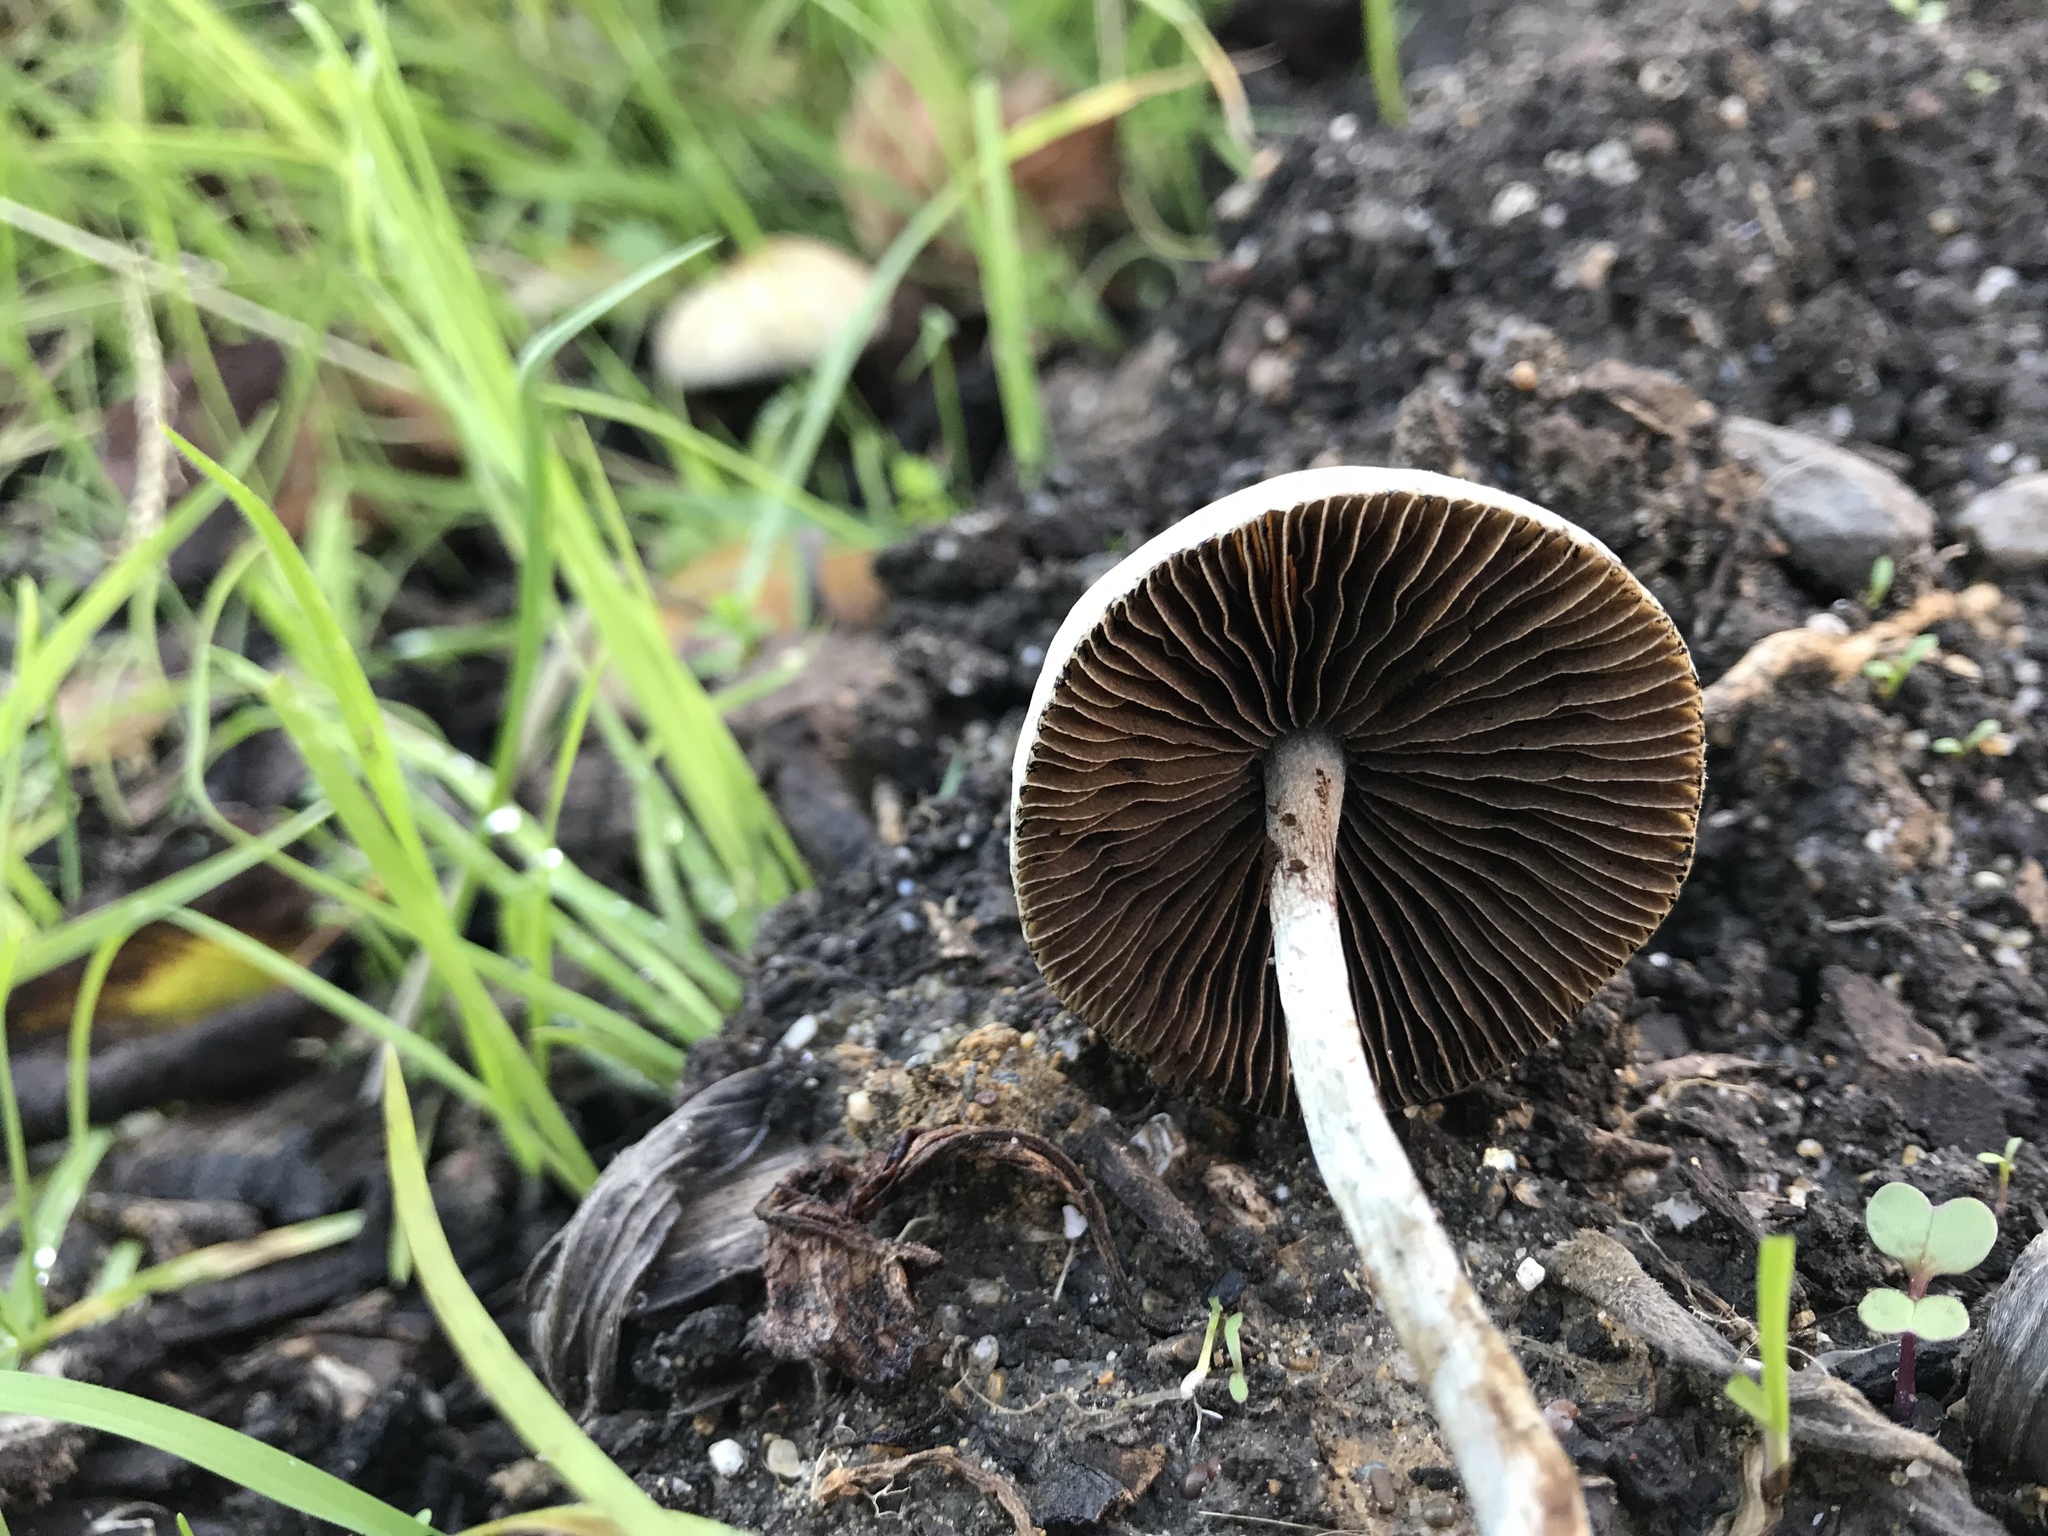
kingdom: Fungi
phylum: Basidiomycota
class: Agaricomycetes
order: Agaricales
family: Hymenogastraceae
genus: Psilocybe
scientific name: Psilocybe allenii
